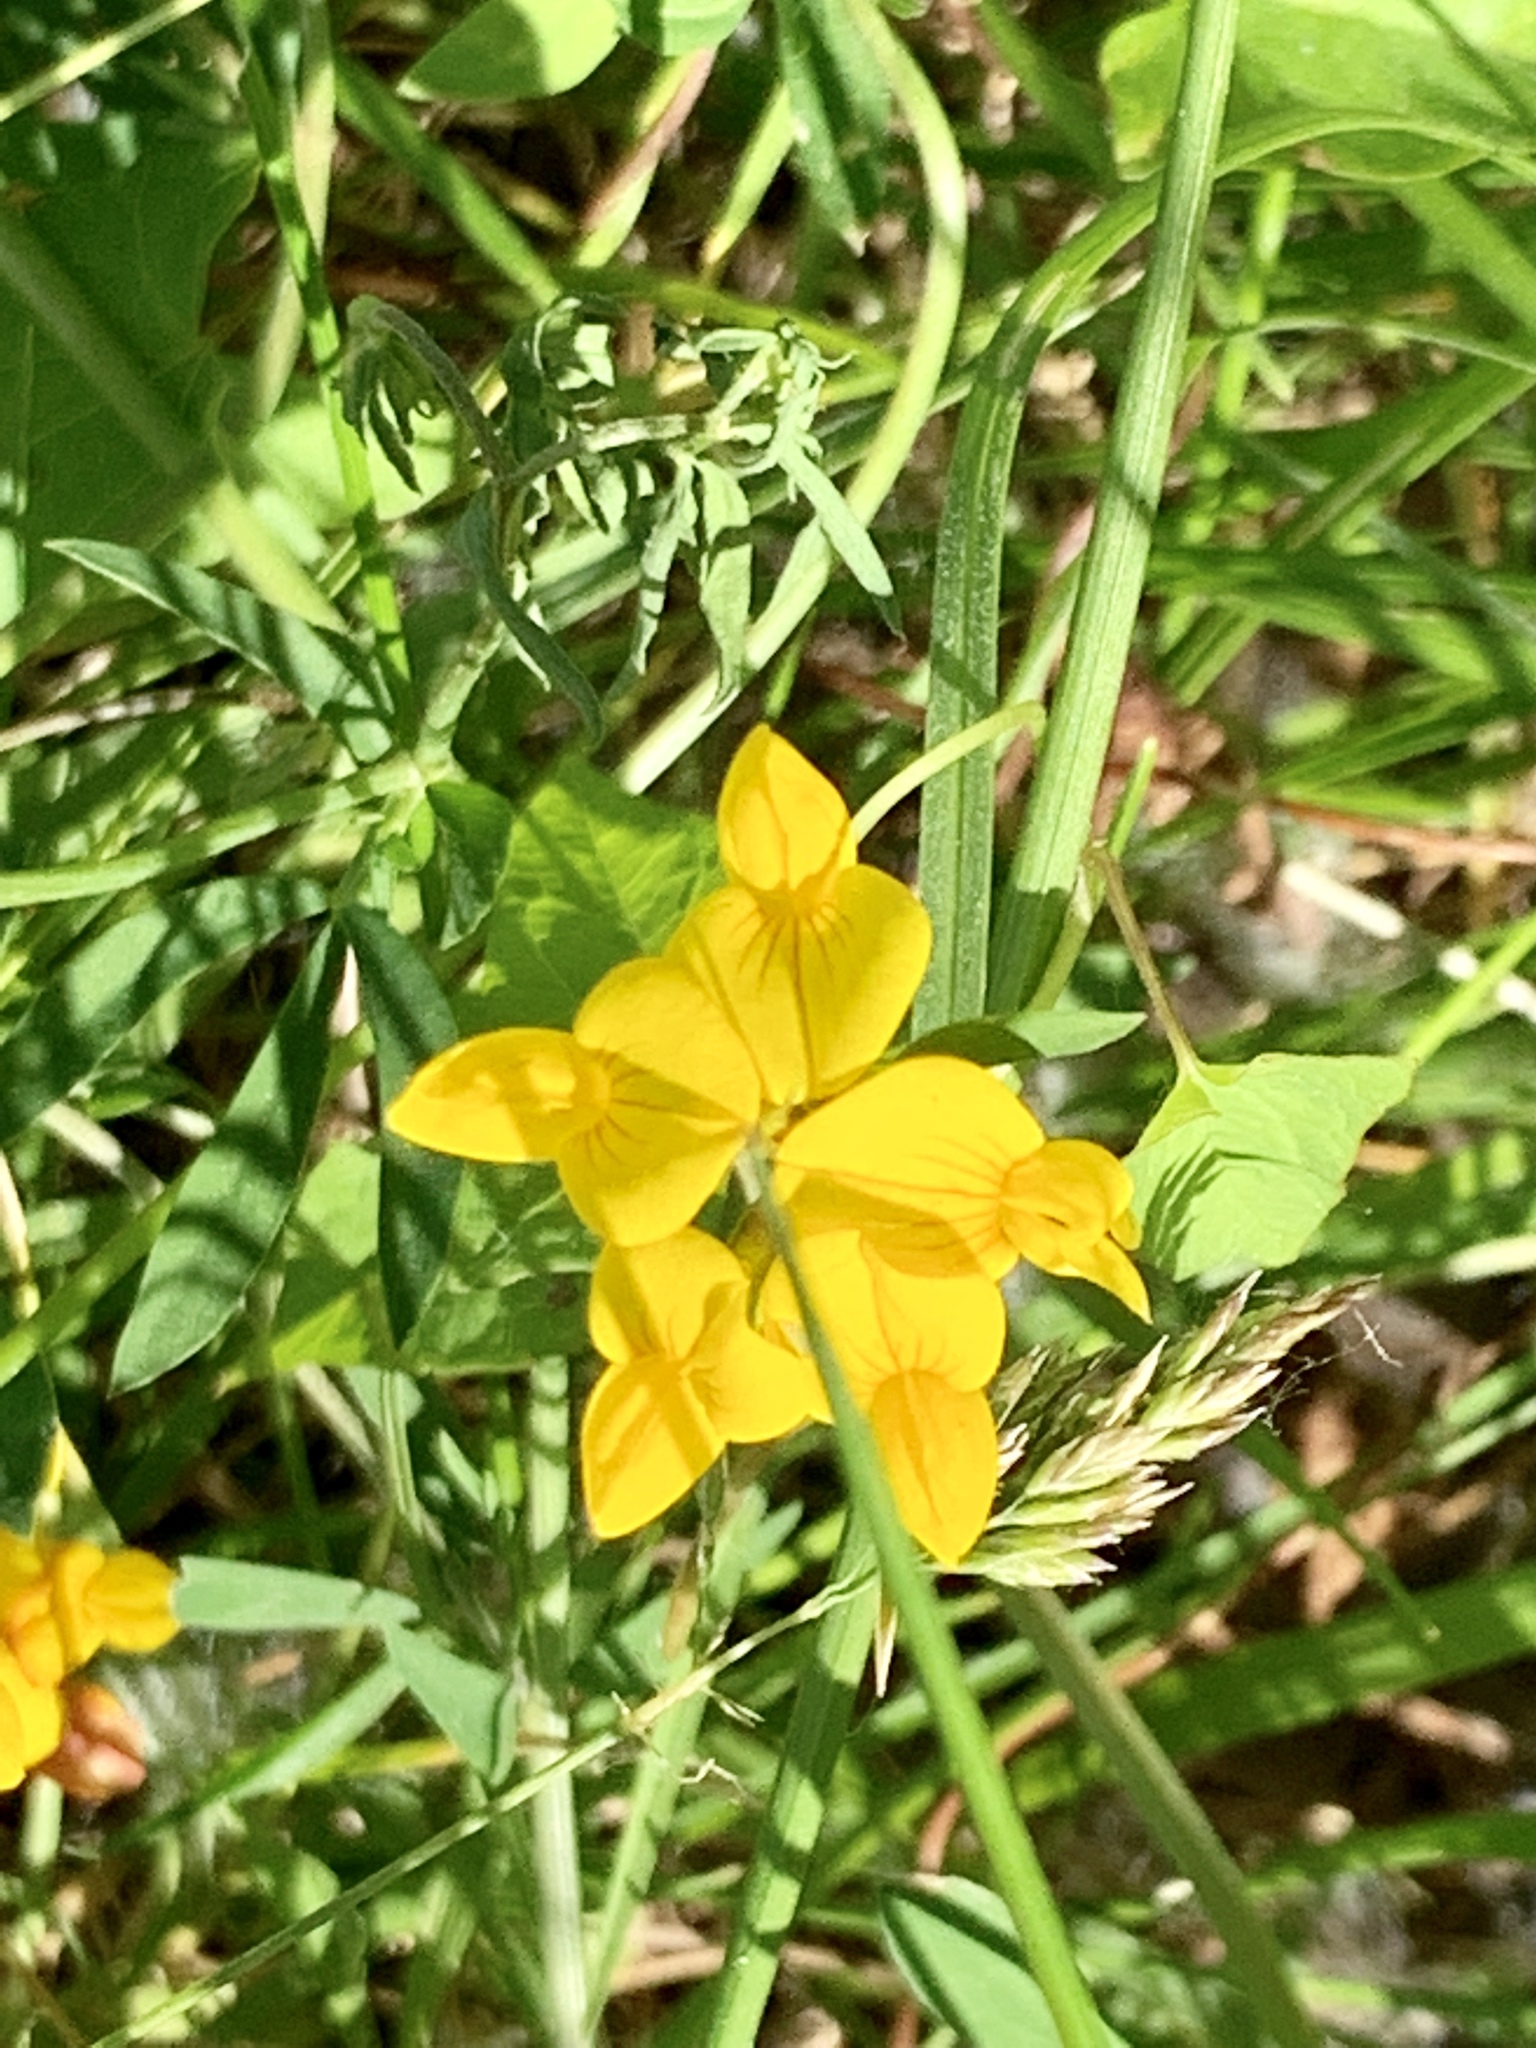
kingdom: Plantae
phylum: Tracheophyta
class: Magnoliopsida
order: Fabales
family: Fabaceae
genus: Lotus
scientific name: Lotus corniculatus
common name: Common bird's-foot-trefoil
